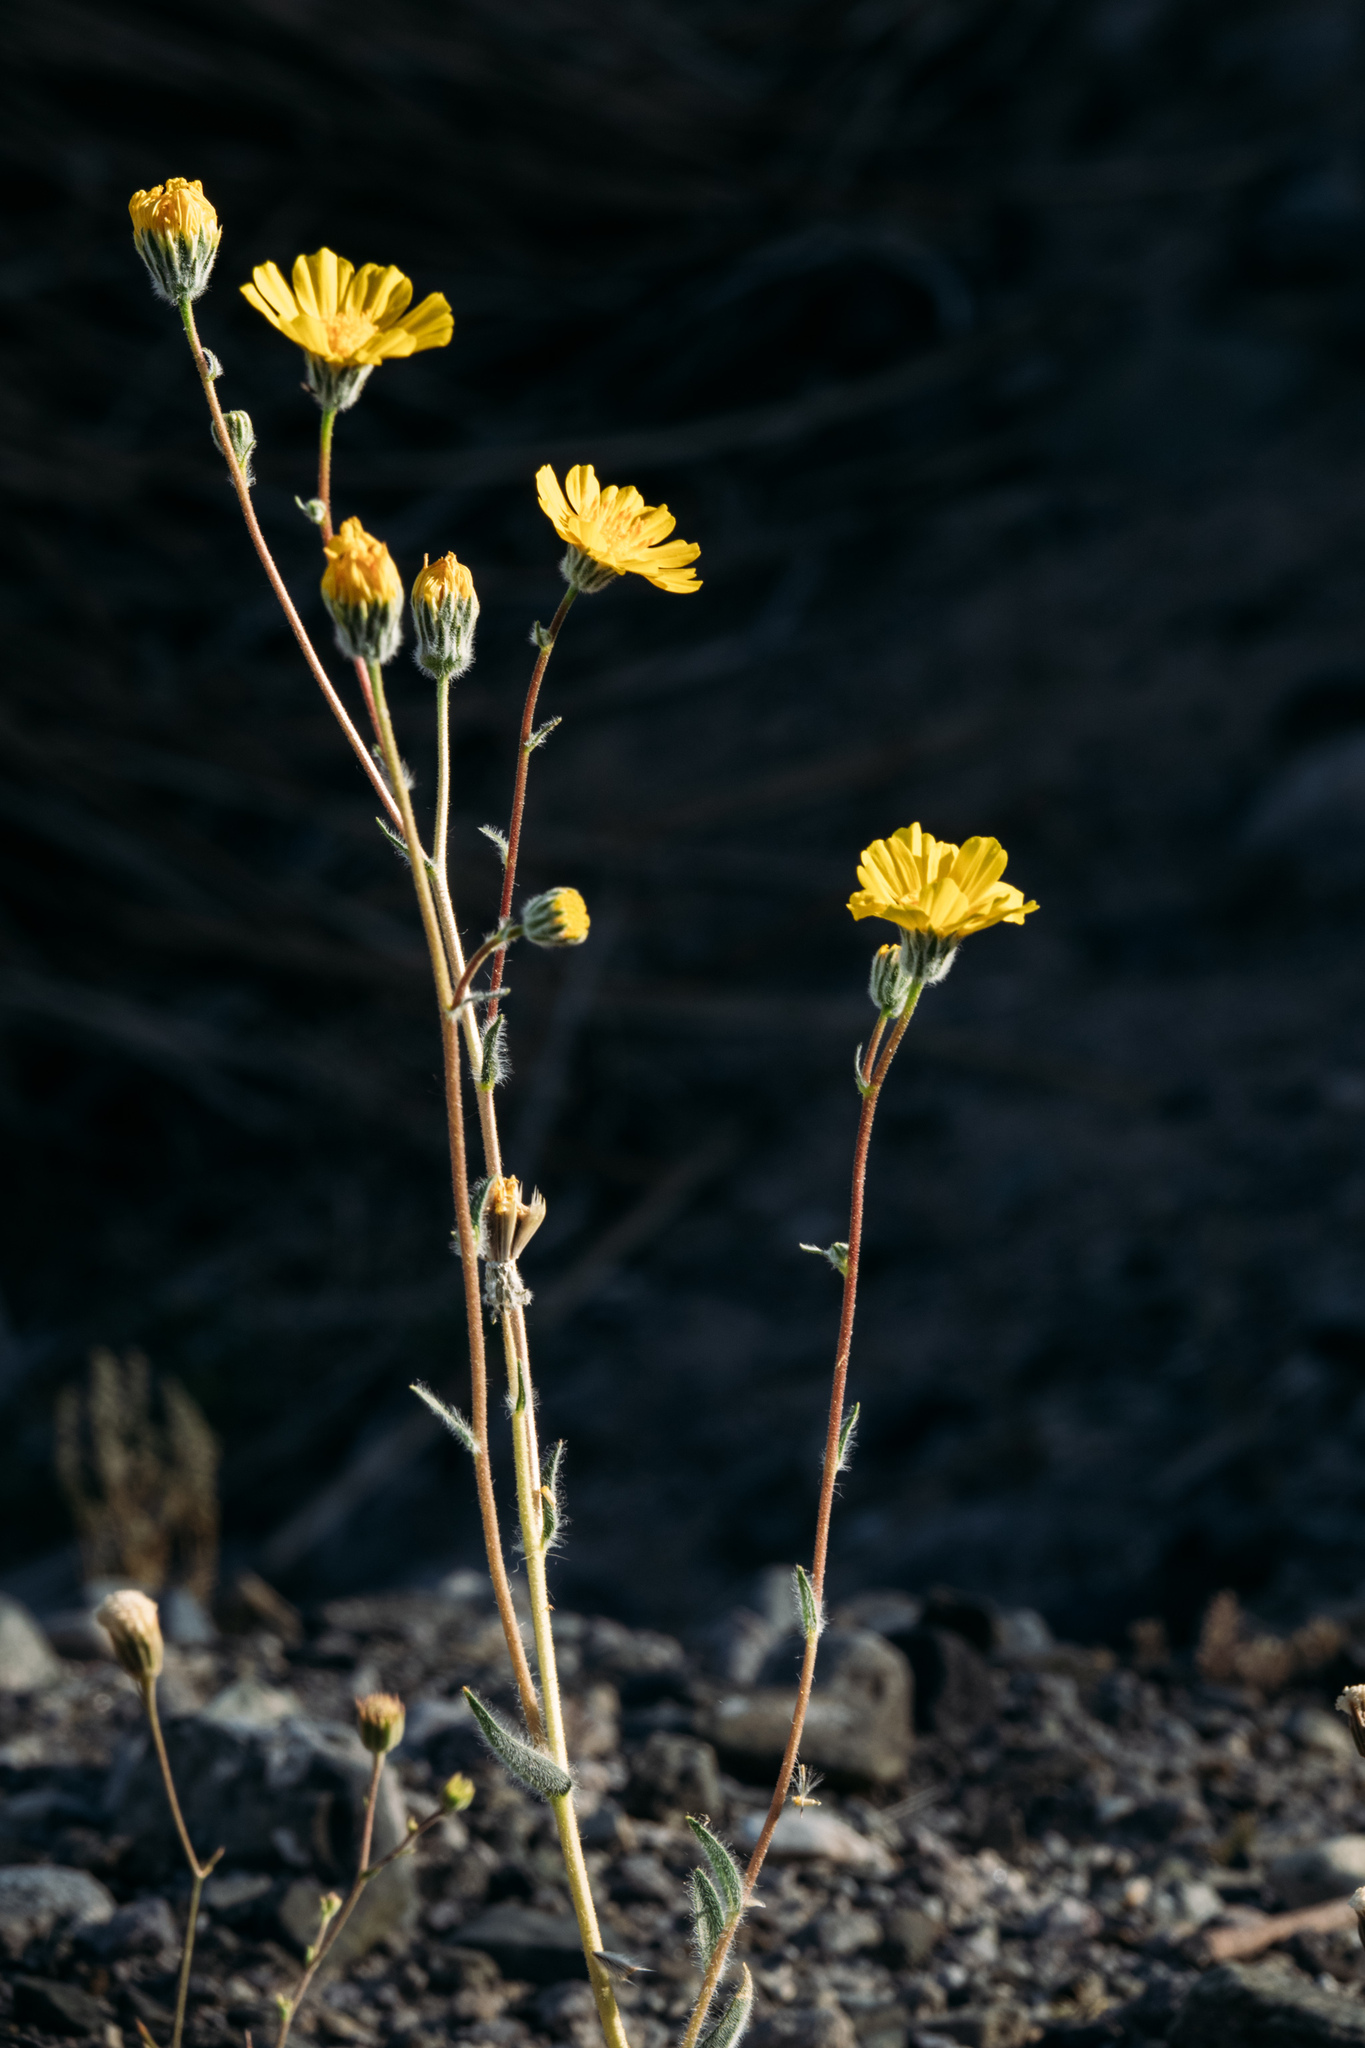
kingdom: Plantae
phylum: Tracheophyta
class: Magnoliopsida
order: Asterales
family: Asteraceae
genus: Geraea
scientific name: Geraea canescens
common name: Desert-gold
